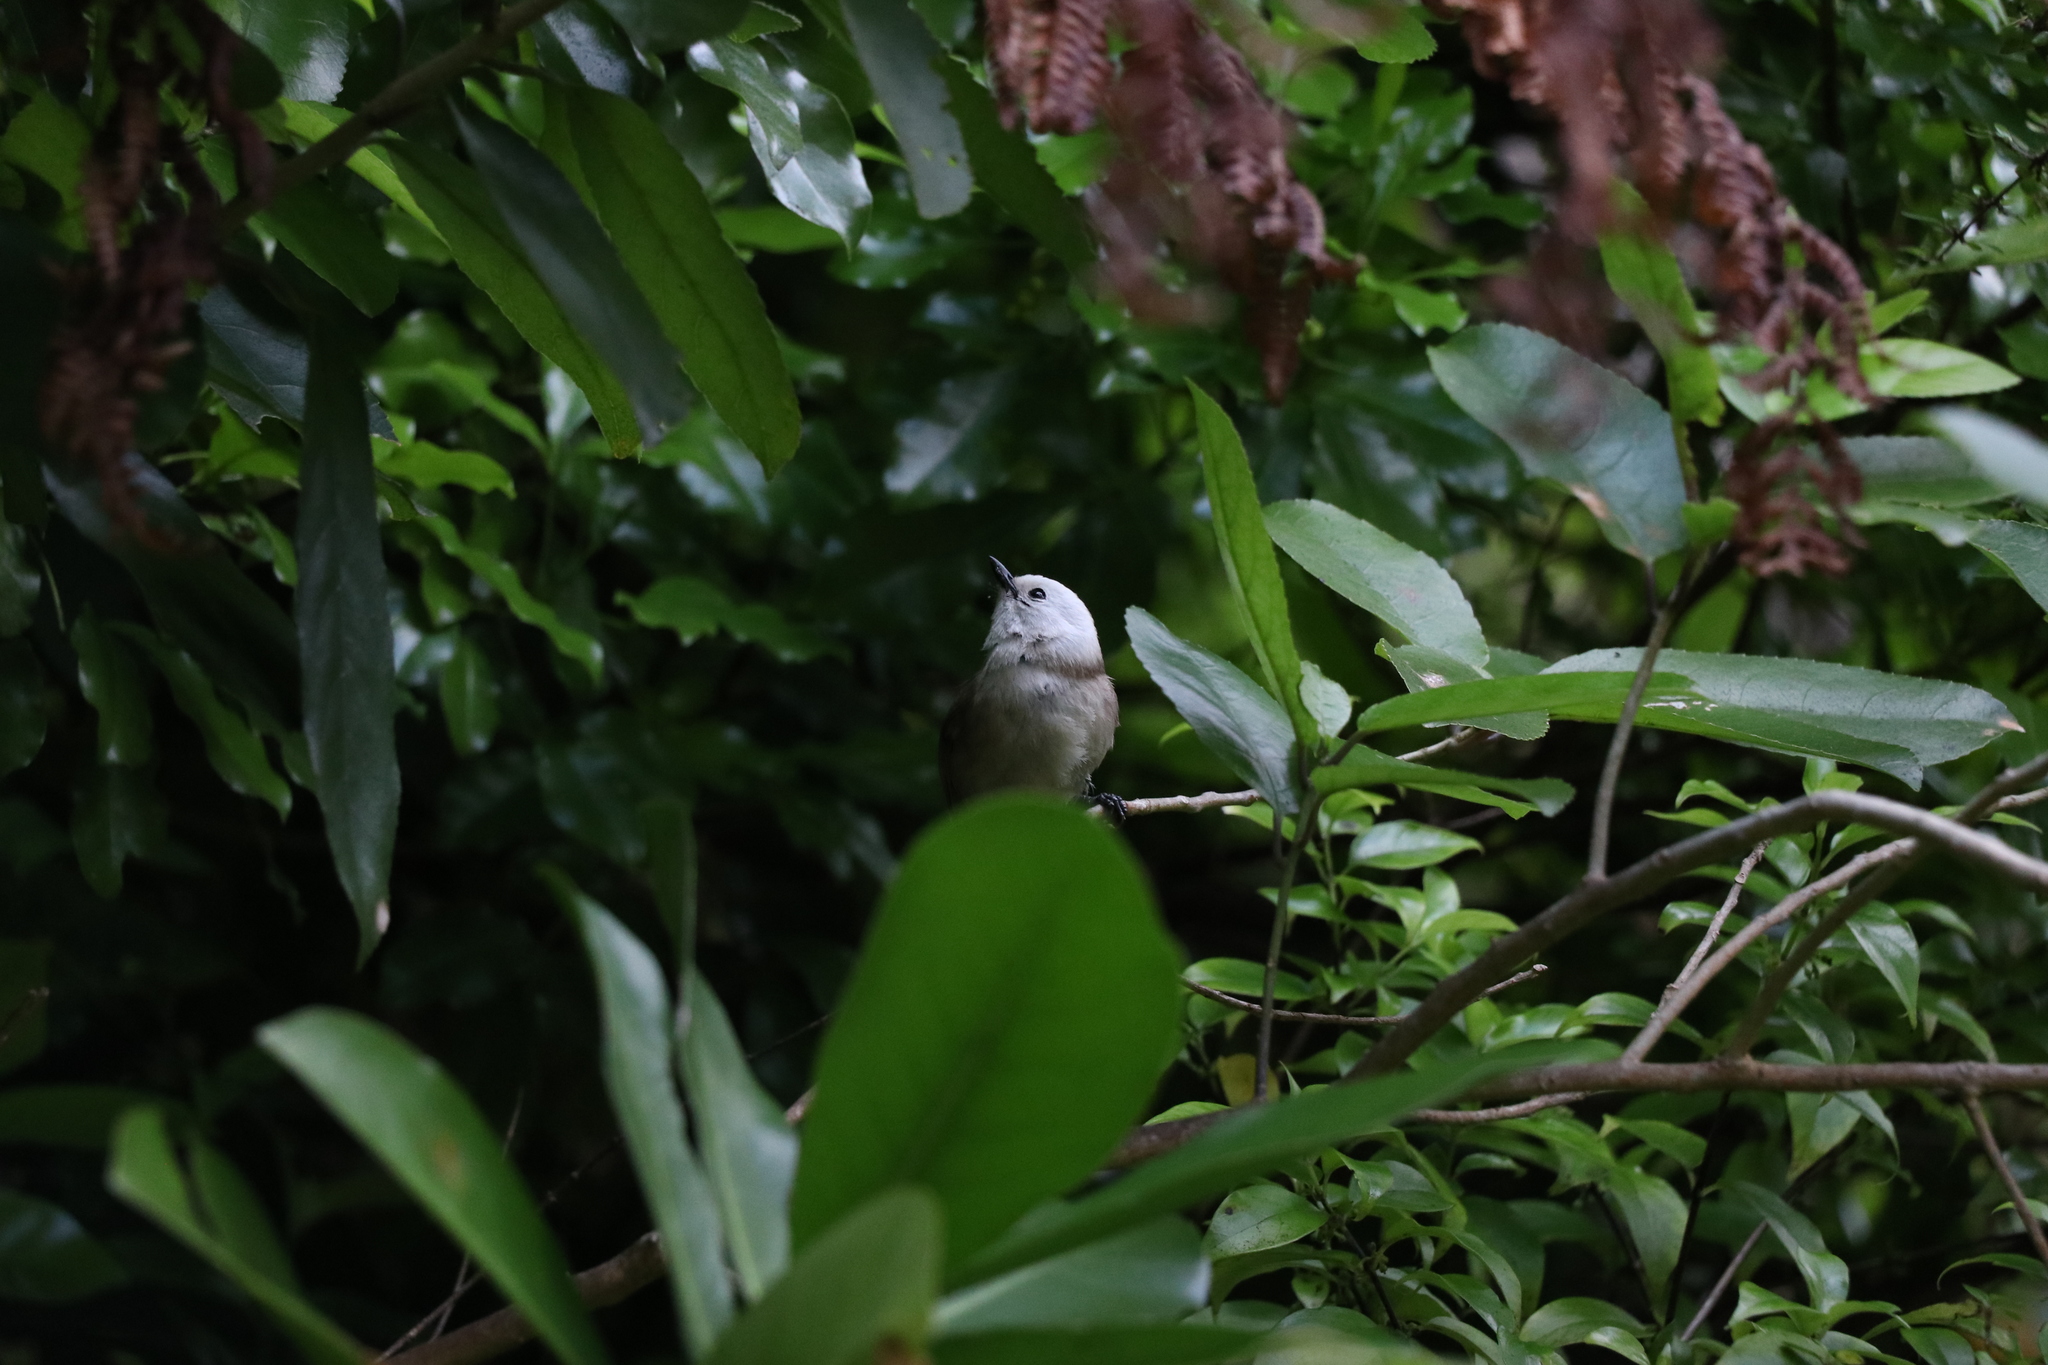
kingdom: Animalia
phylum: Chordata
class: Aves
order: Passeriformes
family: Acanthizidae
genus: Mohoua
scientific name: Mohoua albicilla
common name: Whitehead
